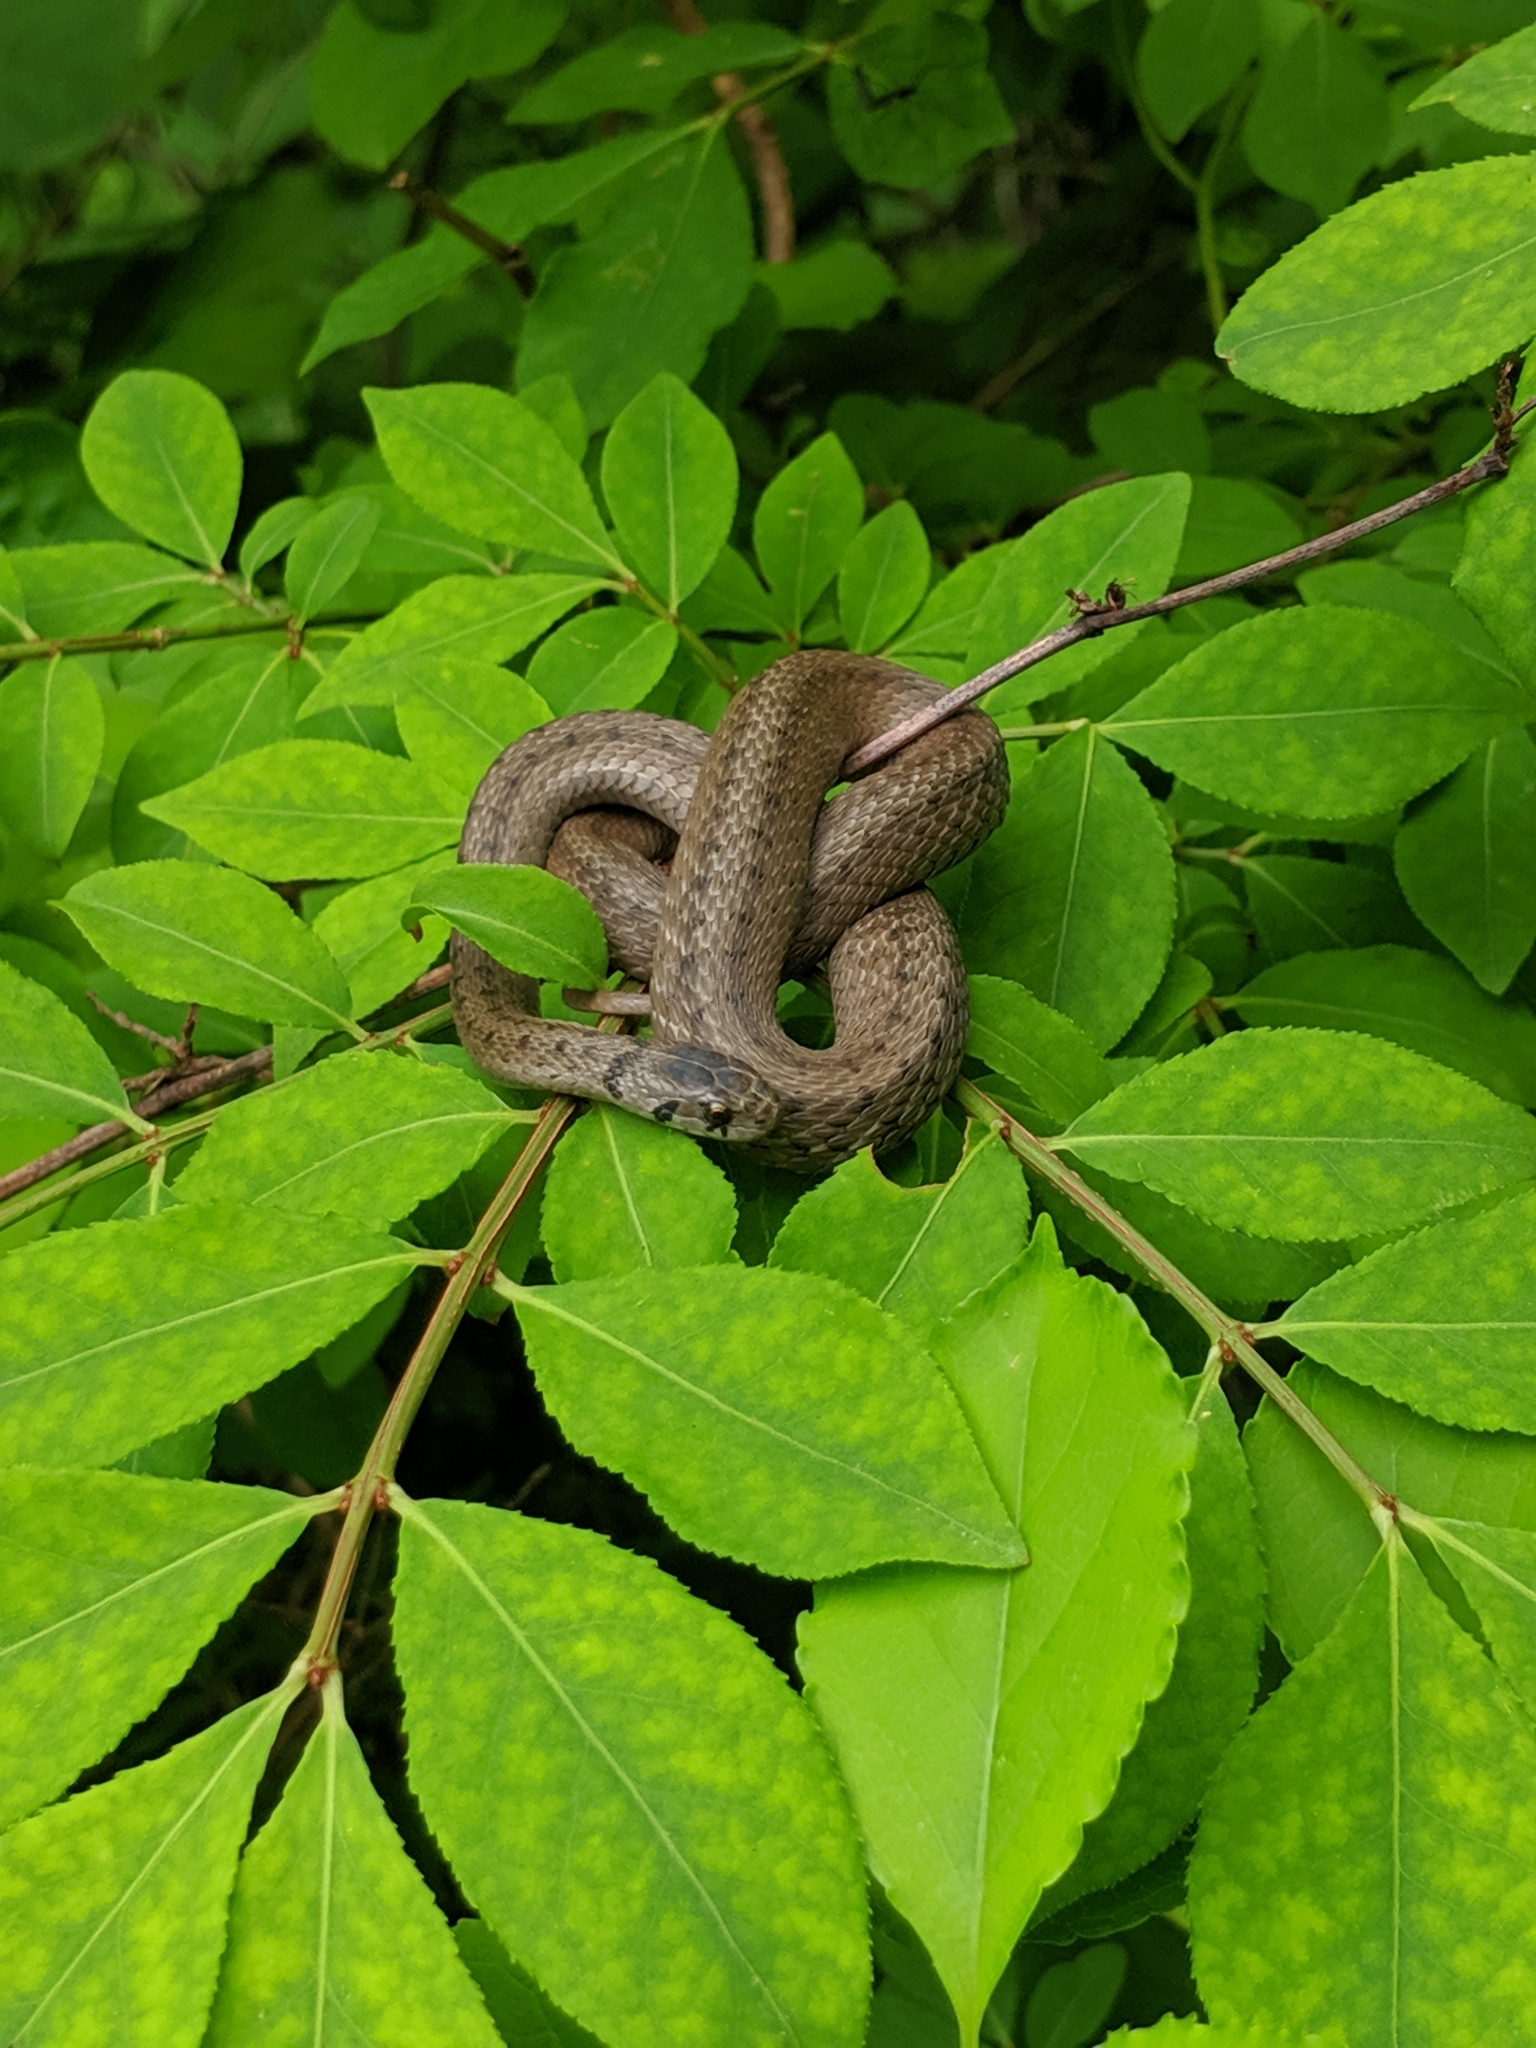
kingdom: Animalia
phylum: Chordata
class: Squamata
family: Colubridae
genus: Storeria
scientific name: Storeria dekayi
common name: (dekay’s) brown snake
